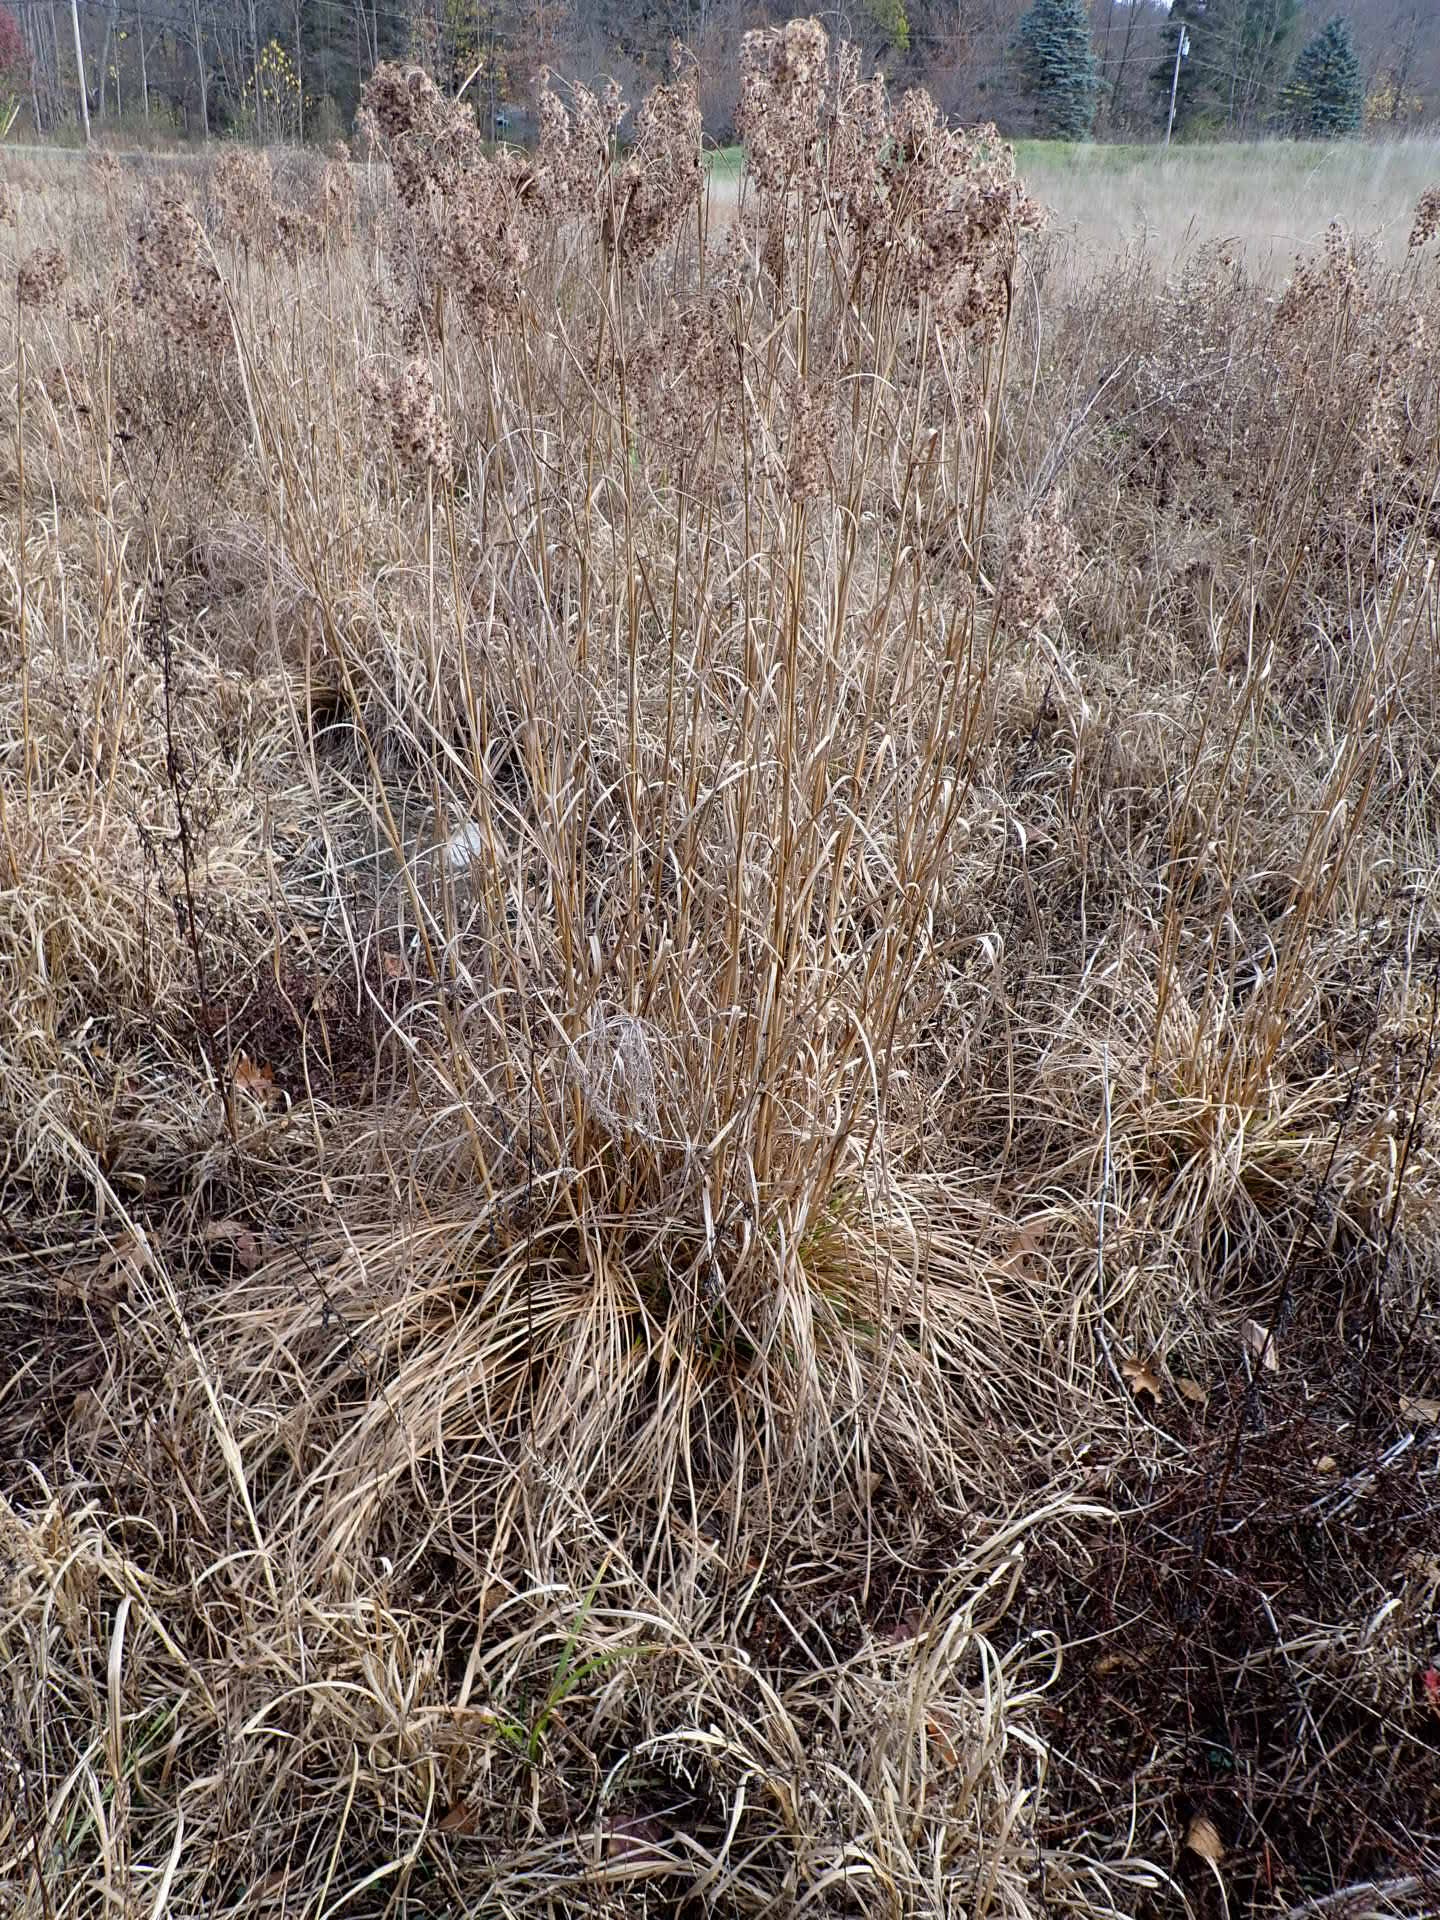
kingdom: Plantae
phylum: Tracheophyta
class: Liliopsida
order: Poales
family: Cyperaceae
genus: Scirpus
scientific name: Scirpus cyperinus
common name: Black-sheathed bulrush
